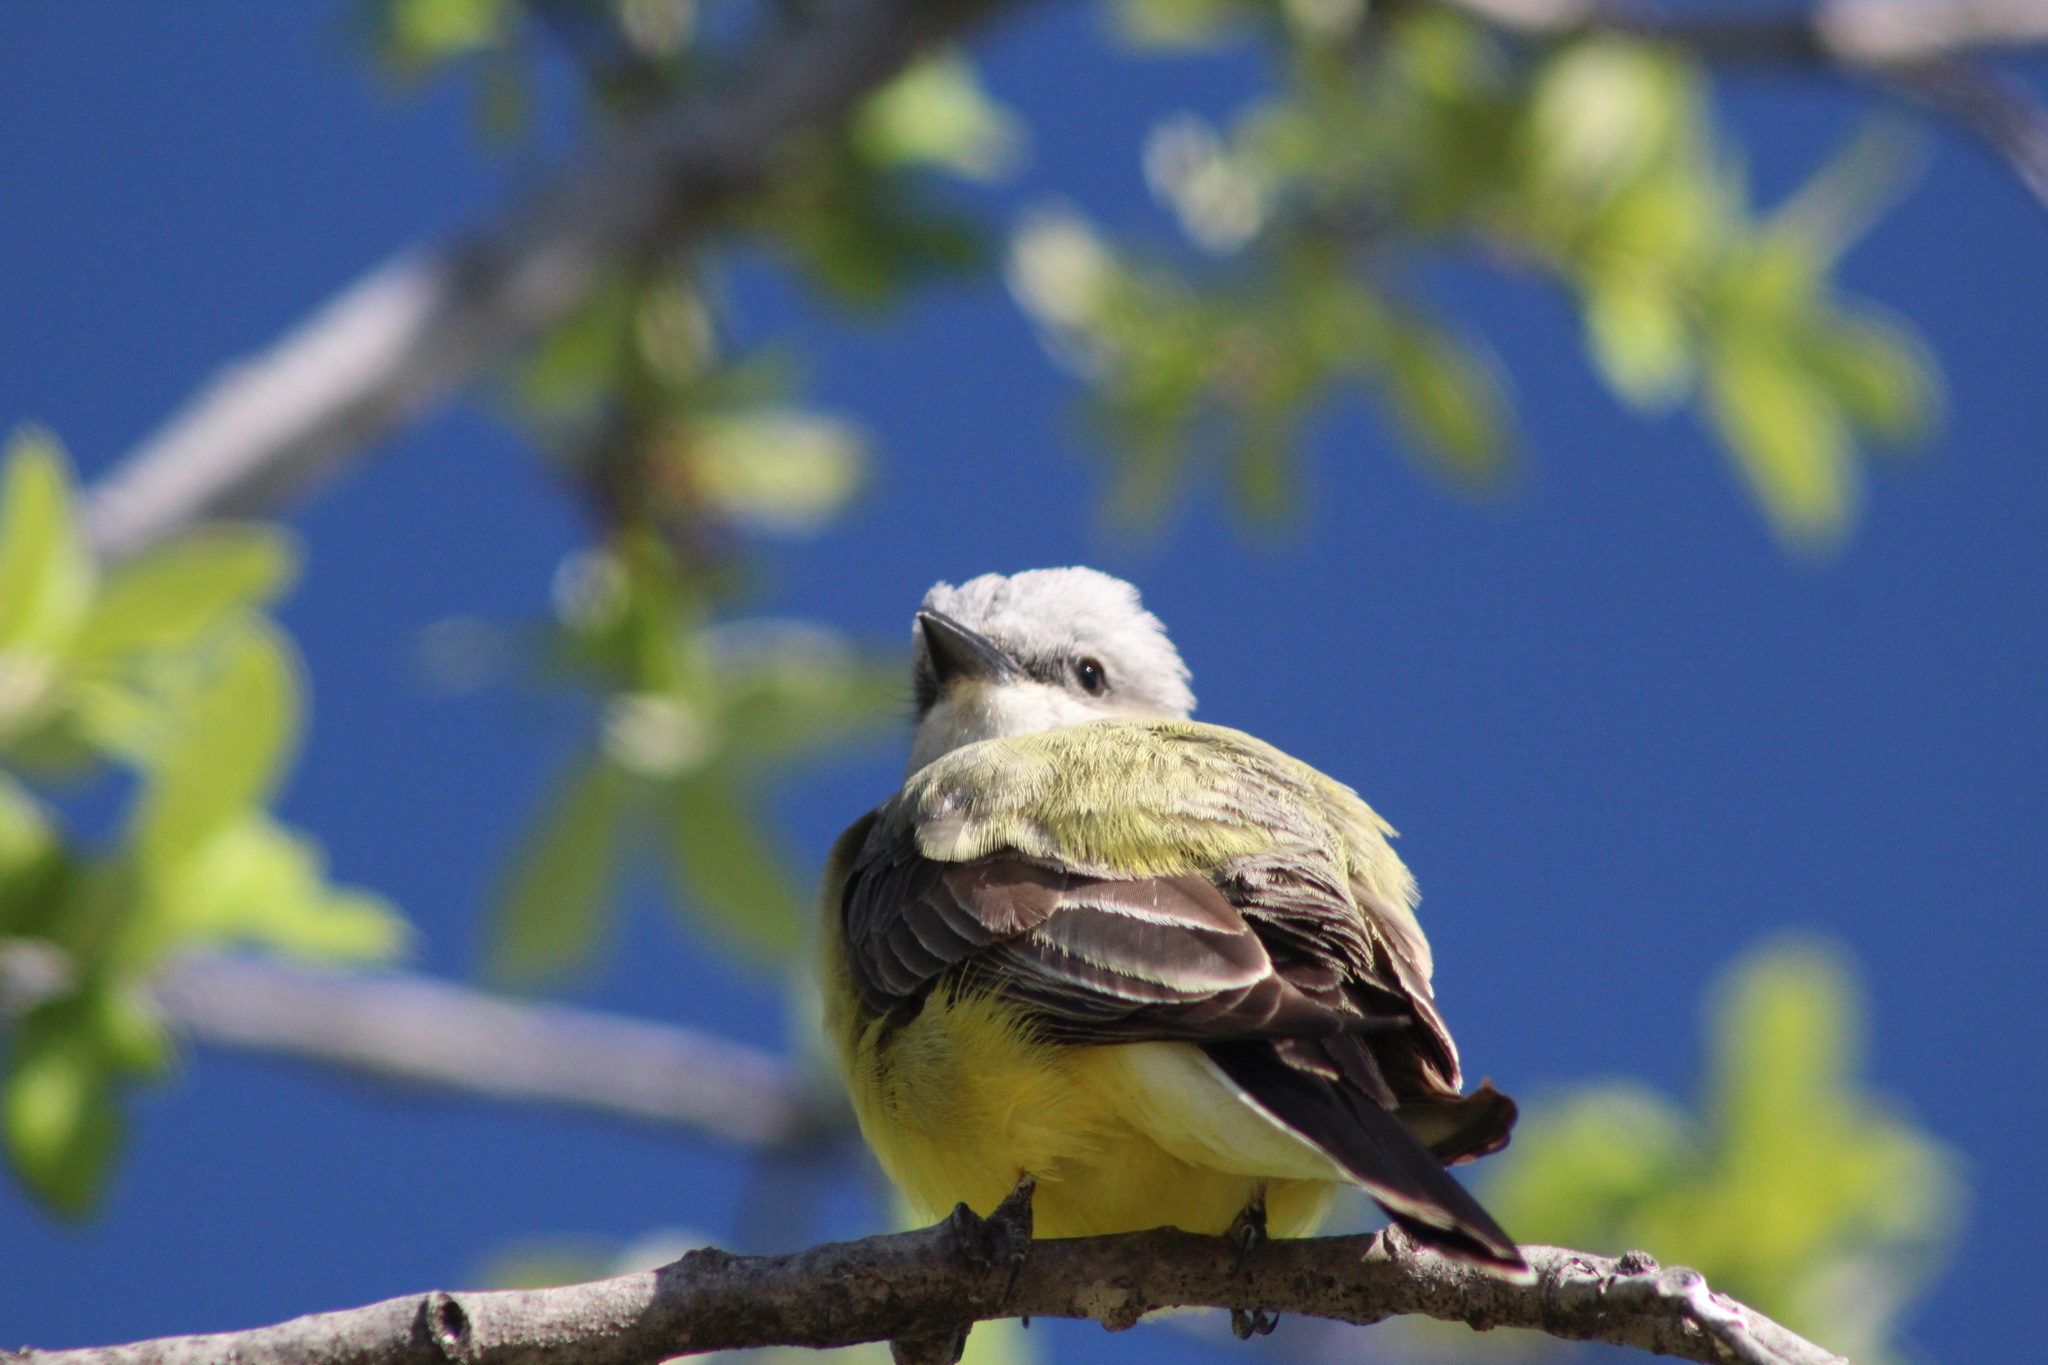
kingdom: Animalia
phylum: Chordata
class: Aves
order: Passeriformes
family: Tyrannidae
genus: Tyrannus
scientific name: Tyrannus verticalis
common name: Western kingbird
